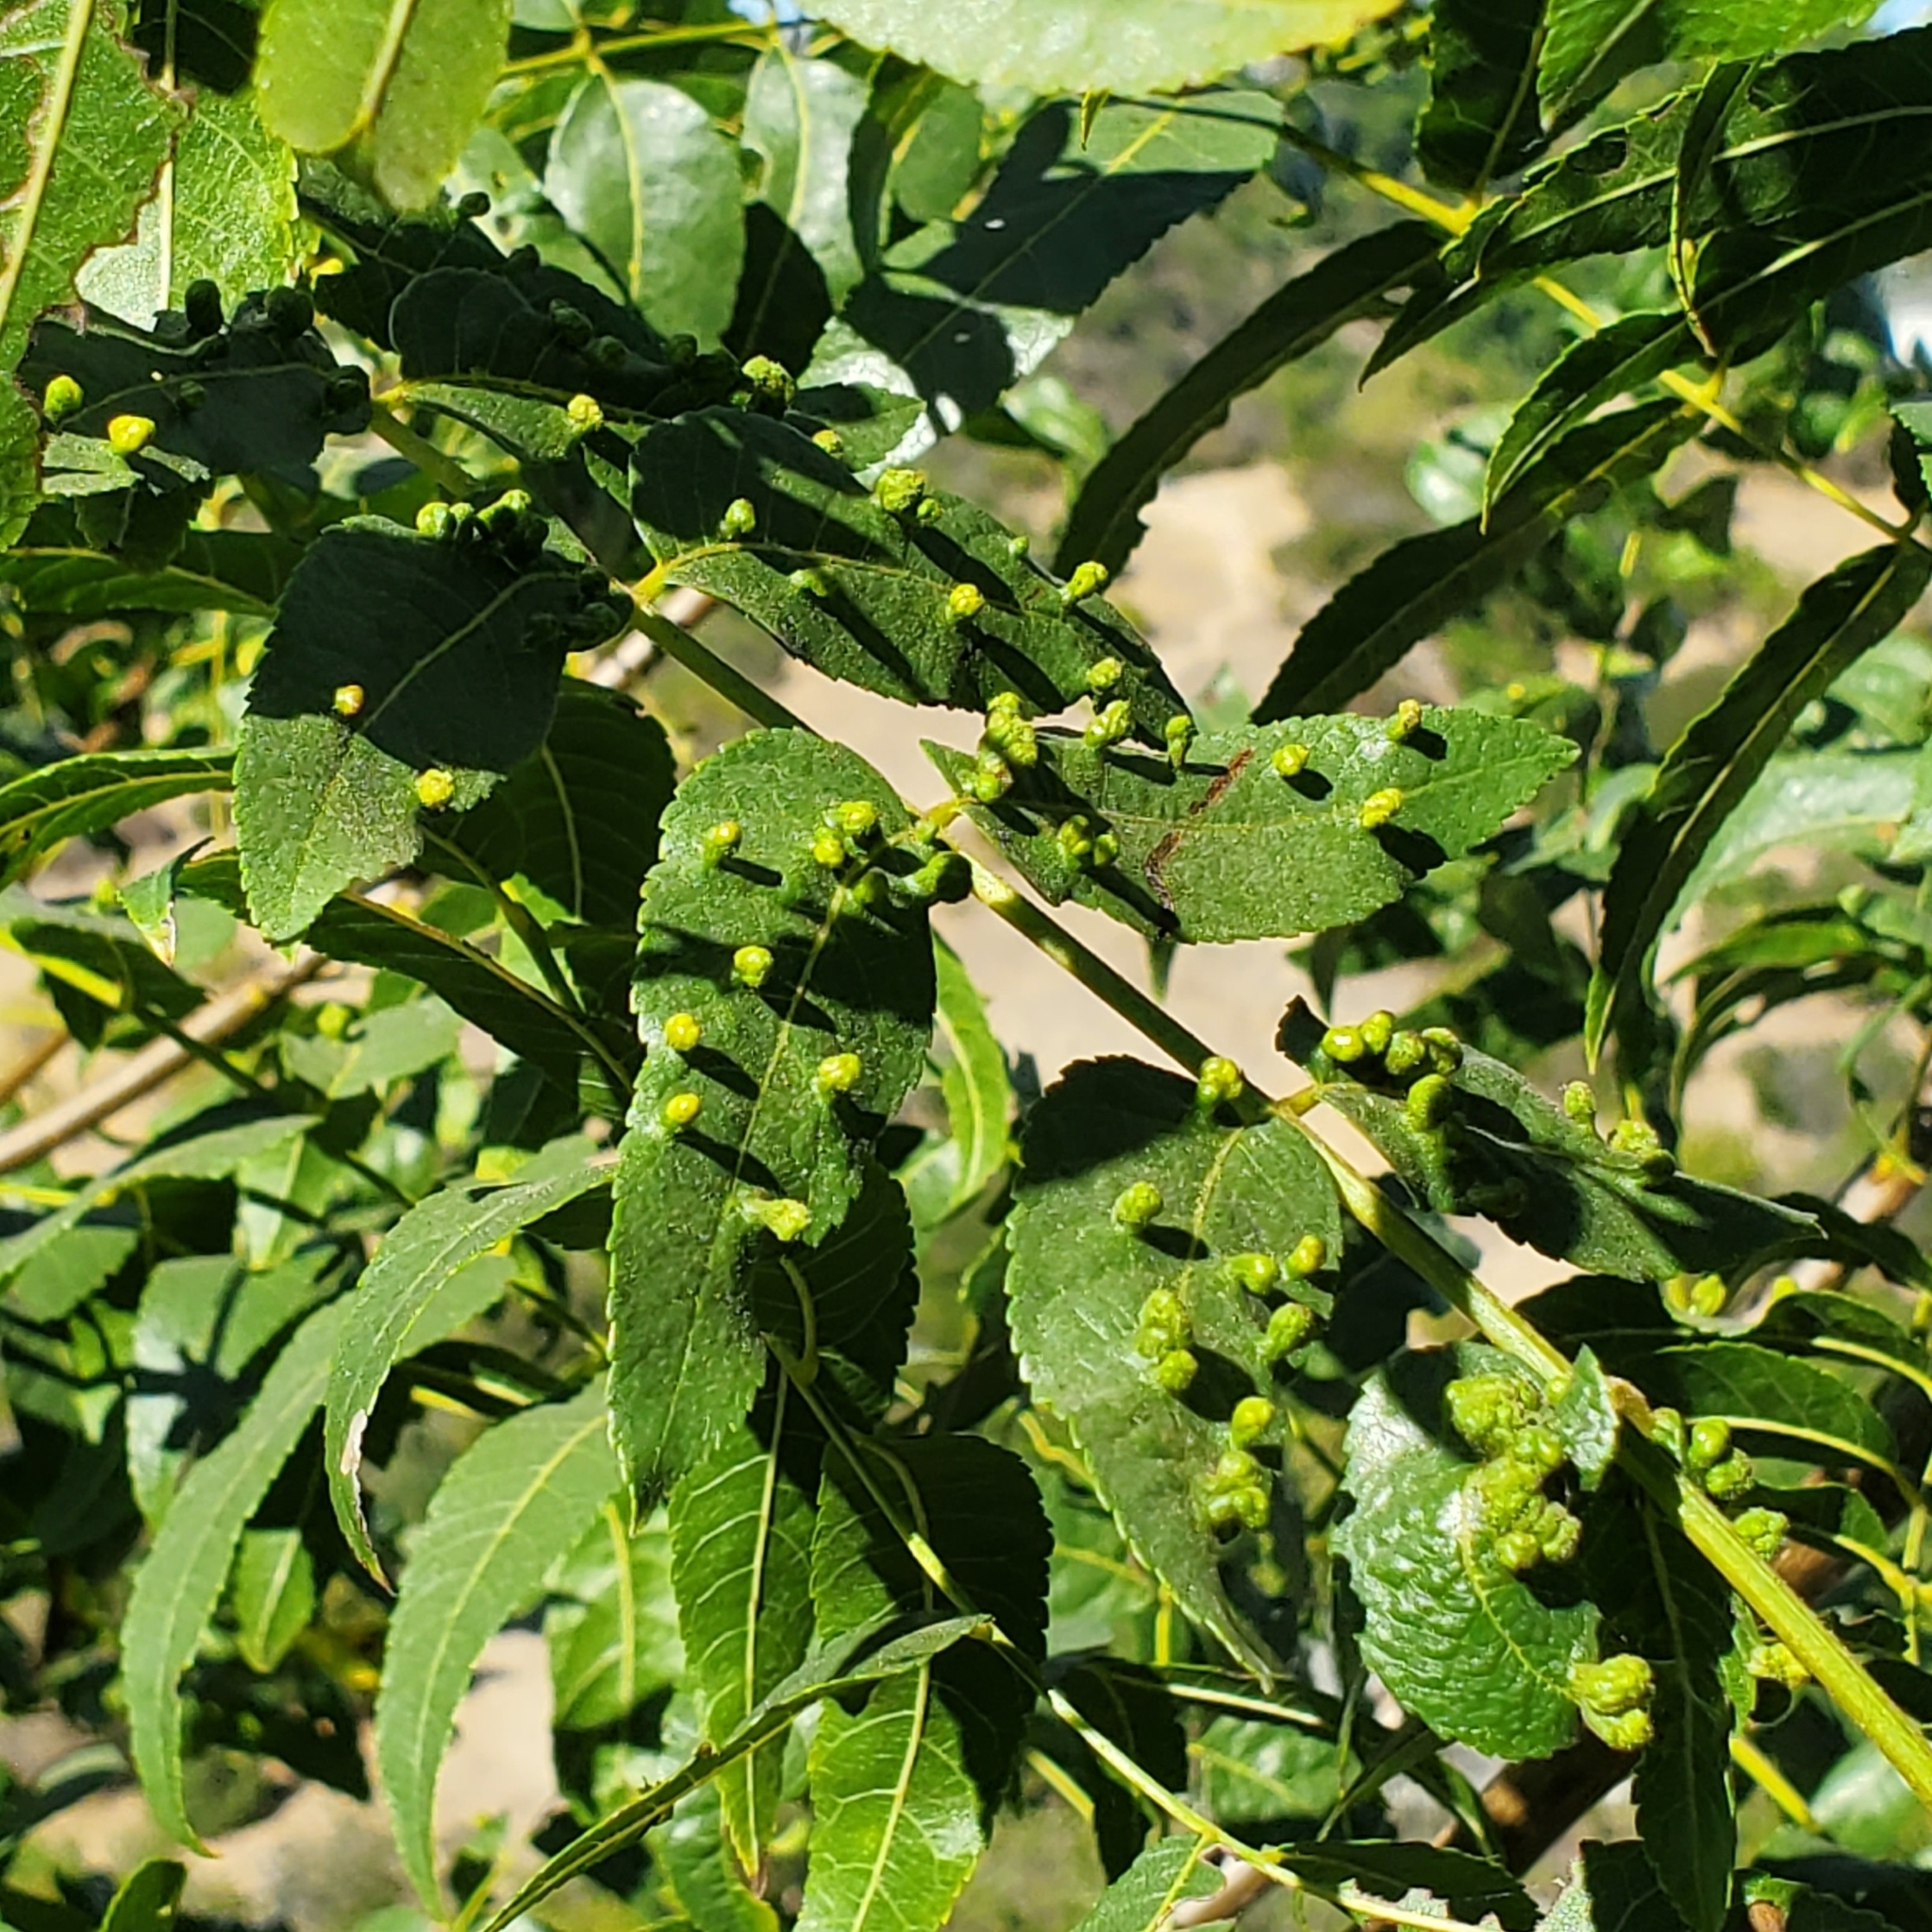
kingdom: Animalia
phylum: Arthropoda
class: Arachnida
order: Trombidiformes
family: Eriophyidae
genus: Aceria
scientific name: Aceria brachytarsus
